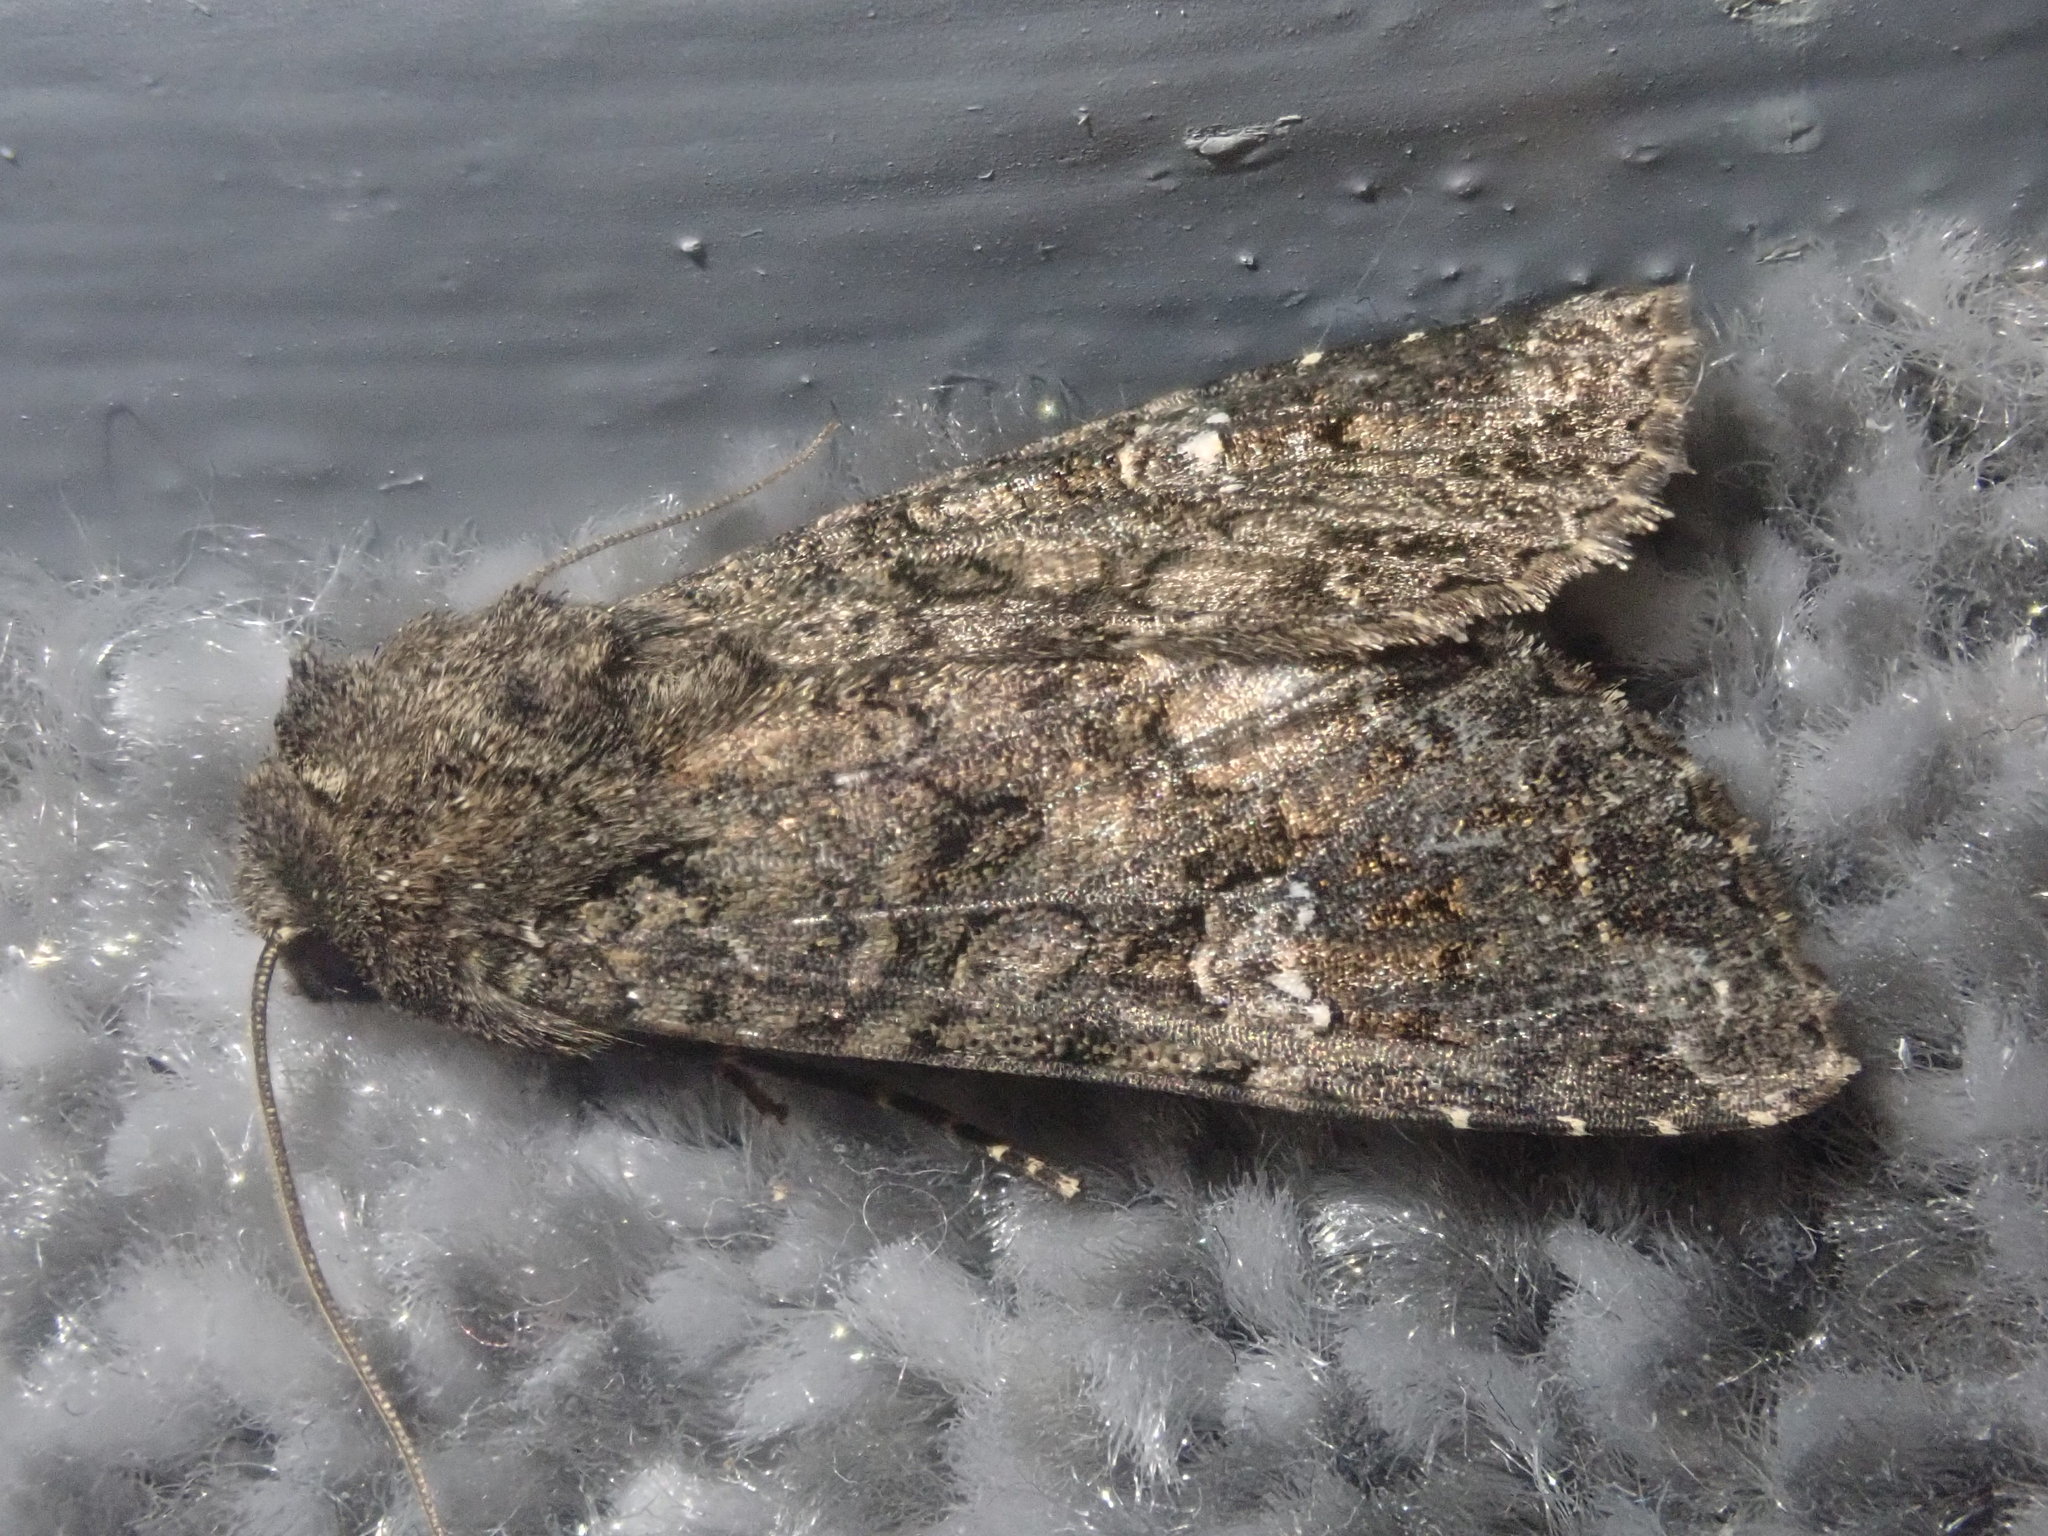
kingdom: Animalia
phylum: Arthropoda
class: Insecta
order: Lepidoptera
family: Noctuidae
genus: Mamestra
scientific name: Mamestra brassicae
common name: Cabbage moth
